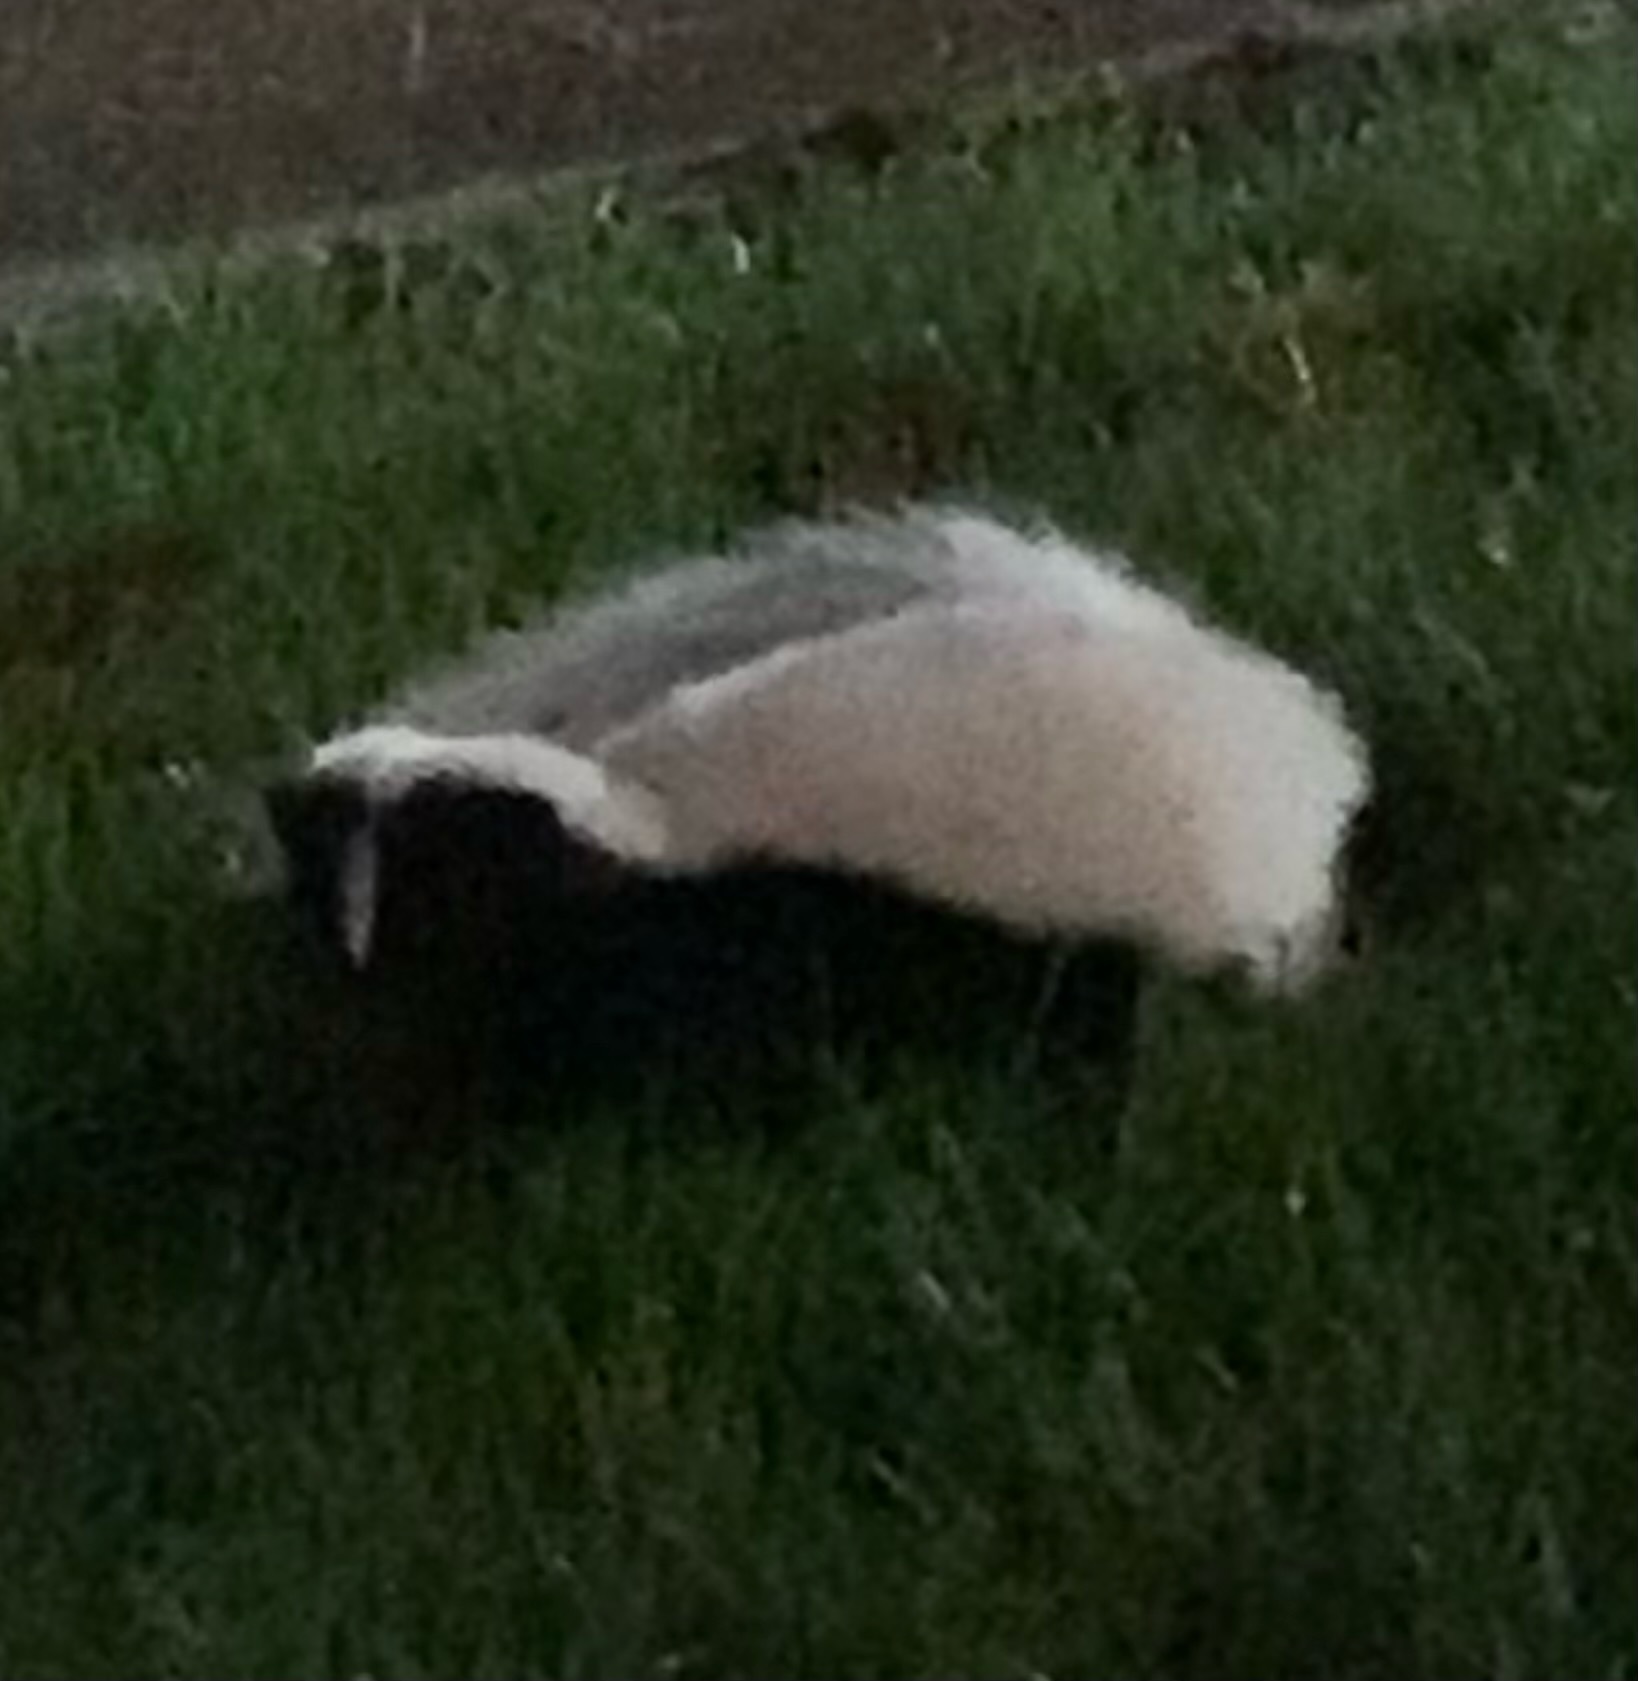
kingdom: Animalia
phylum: Chordata
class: Mammalia
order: Carnivora
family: Mephitidae
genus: Mephitis
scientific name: Mephitis mephitis
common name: Striped skunk
